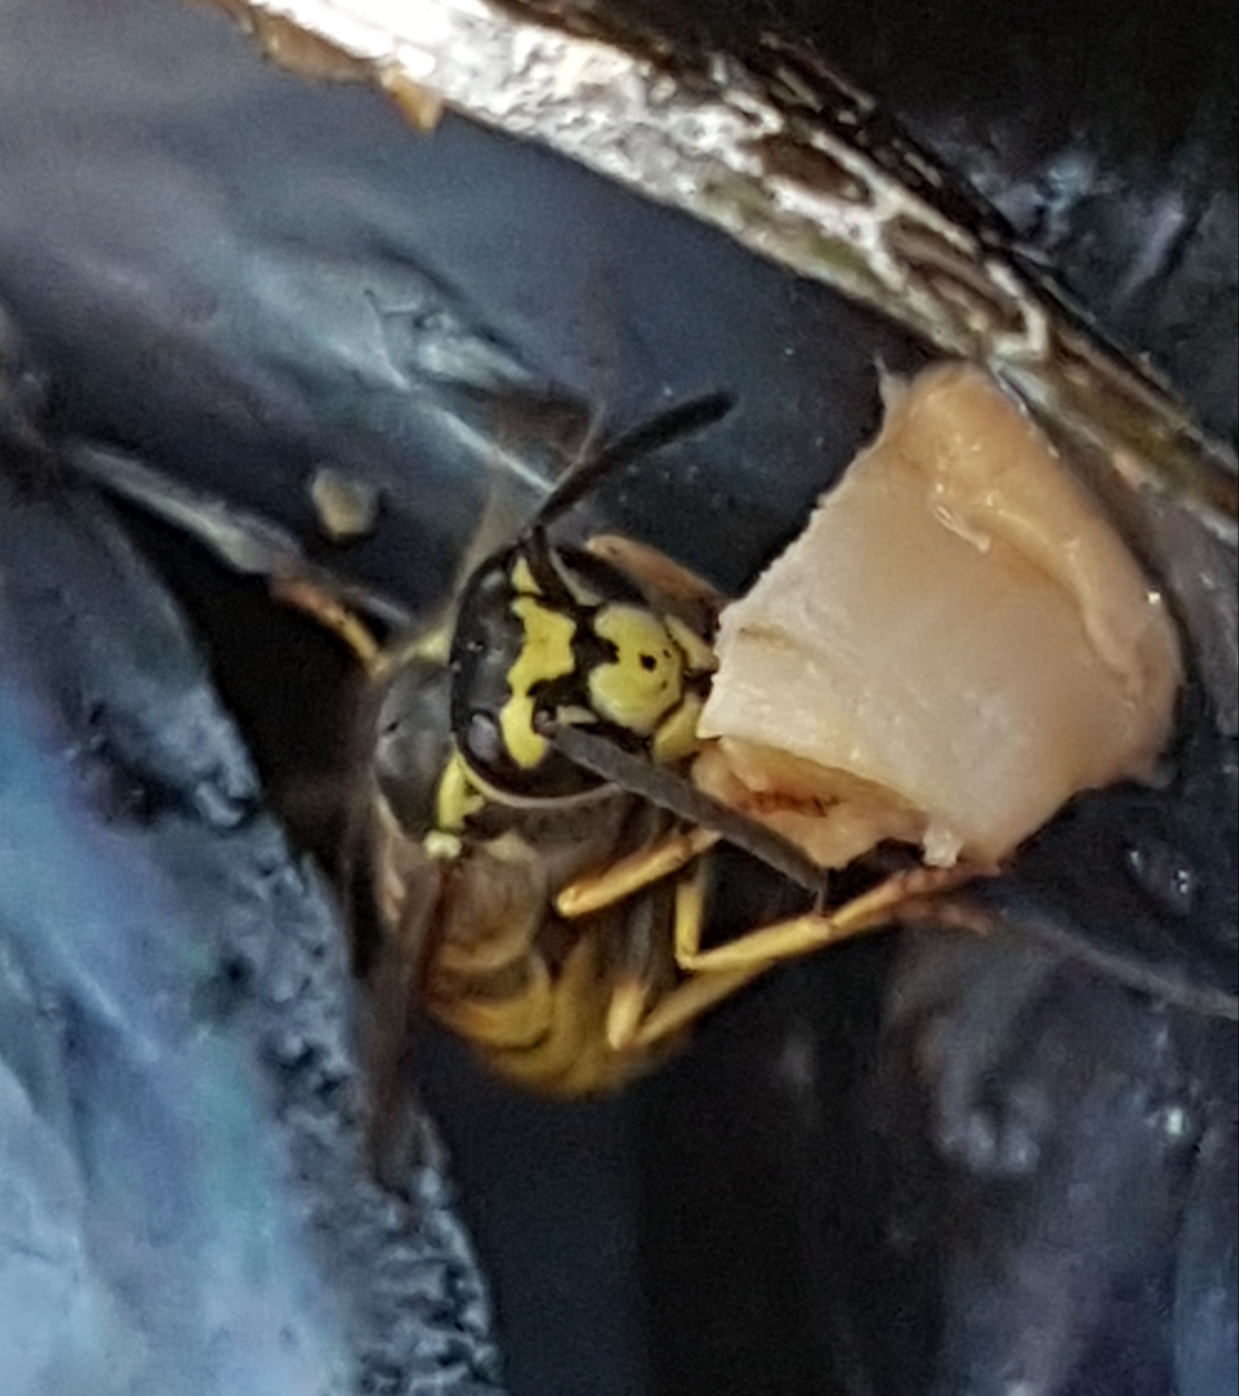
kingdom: Animalia
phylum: Arthropoda
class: Insecta
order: Hymenoptera
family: Vespidae
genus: Vespula
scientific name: Vespula germanica
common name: German wasp
